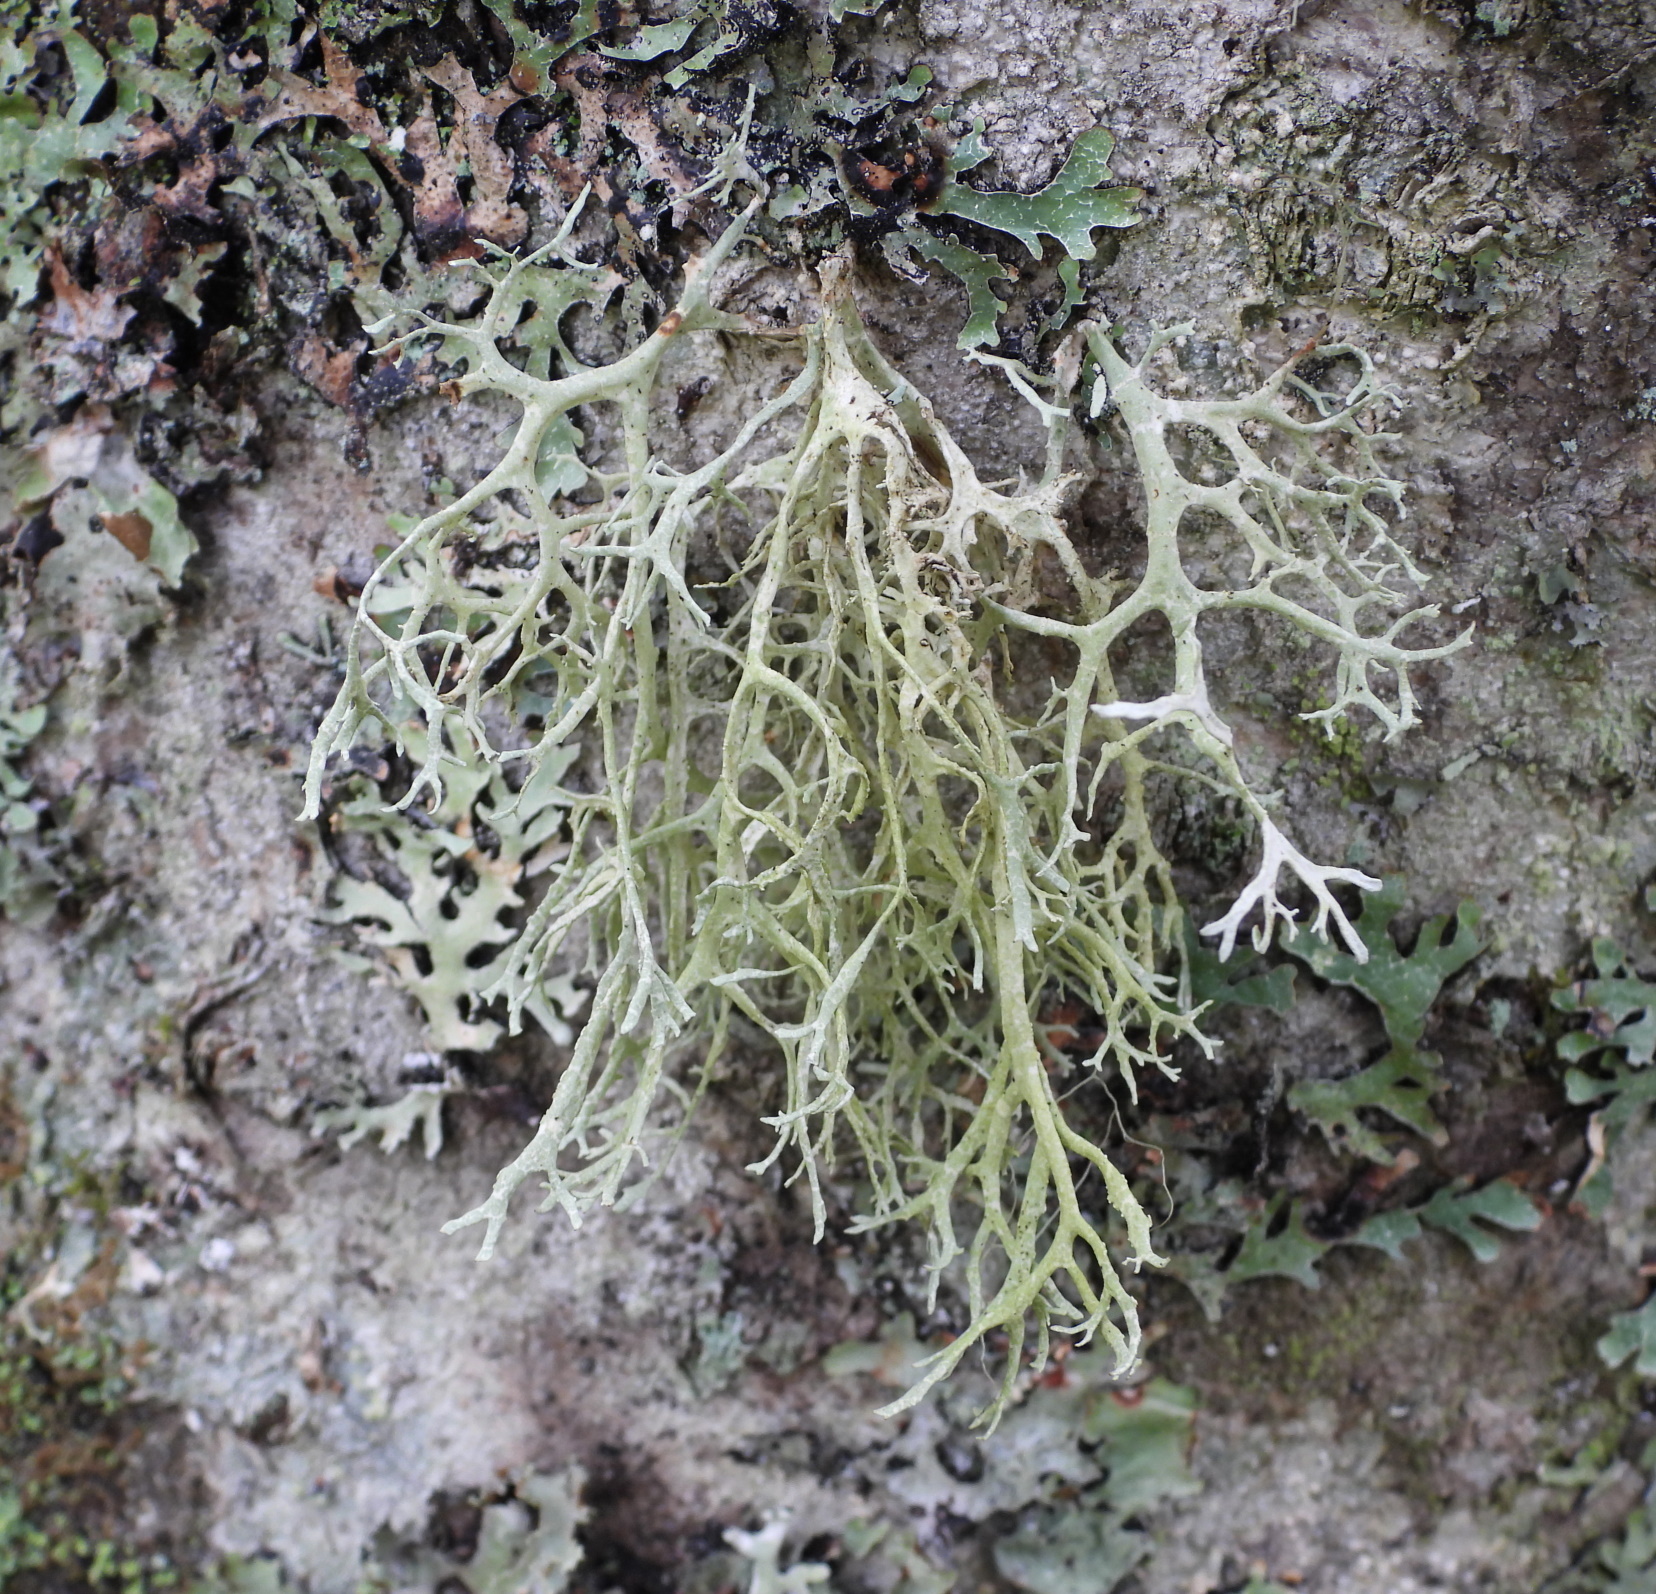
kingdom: Fungi
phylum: Ascomycota
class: Lecanoromycetes
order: Lecanorales
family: Parmeliaceae
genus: Evernia
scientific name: Evernia prunastri
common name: Oak moss
